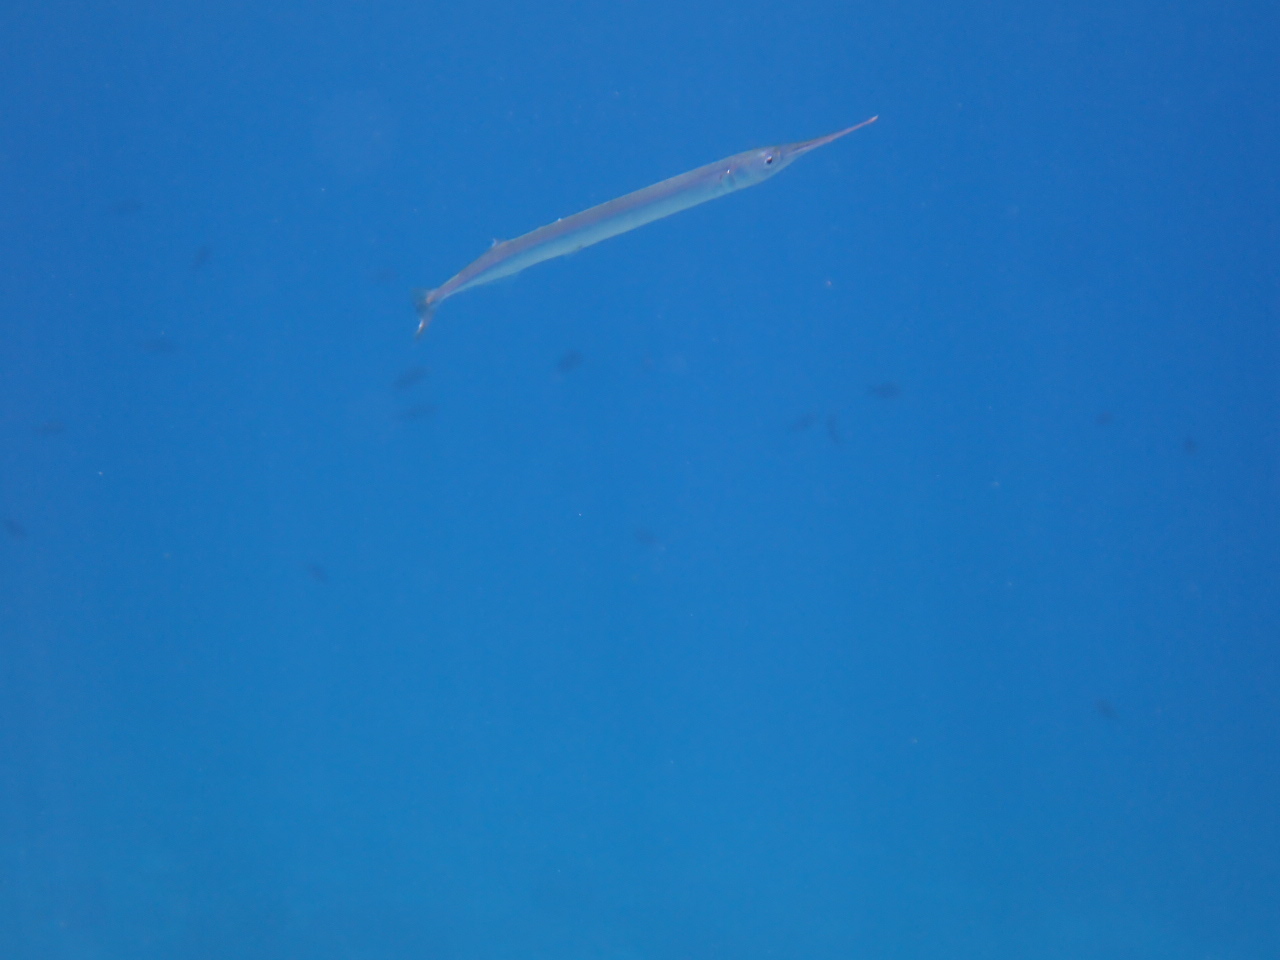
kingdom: Animalia
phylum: Chordata
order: Beloniformes
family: Belonidae
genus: Belone
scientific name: Belone
